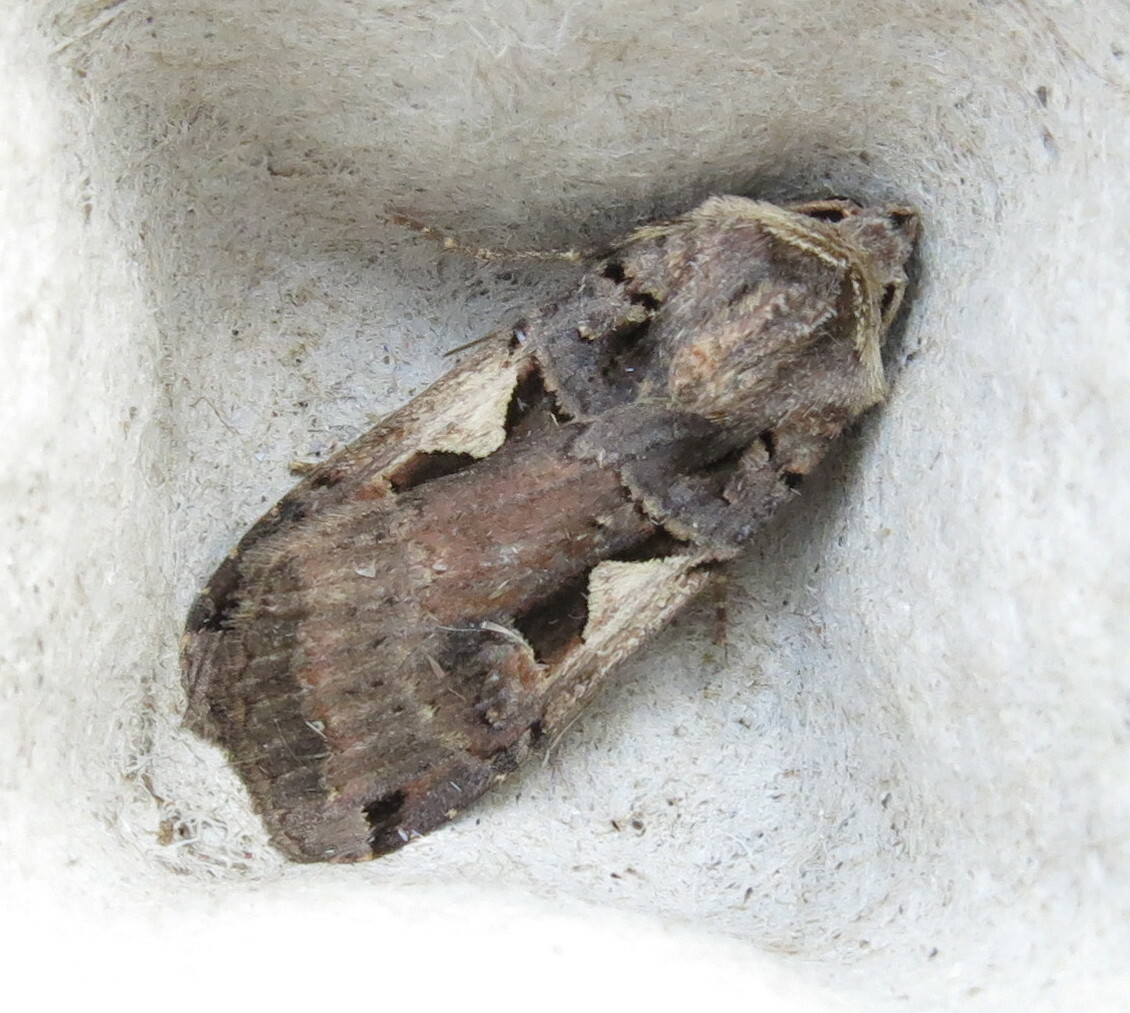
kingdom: Animalia
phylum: Arthropoda
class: Insecta
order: Lepidoptera
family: Noctuidae
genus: Xestia
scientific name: Xestia c-nigrum
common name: Setaceous hebrew character
